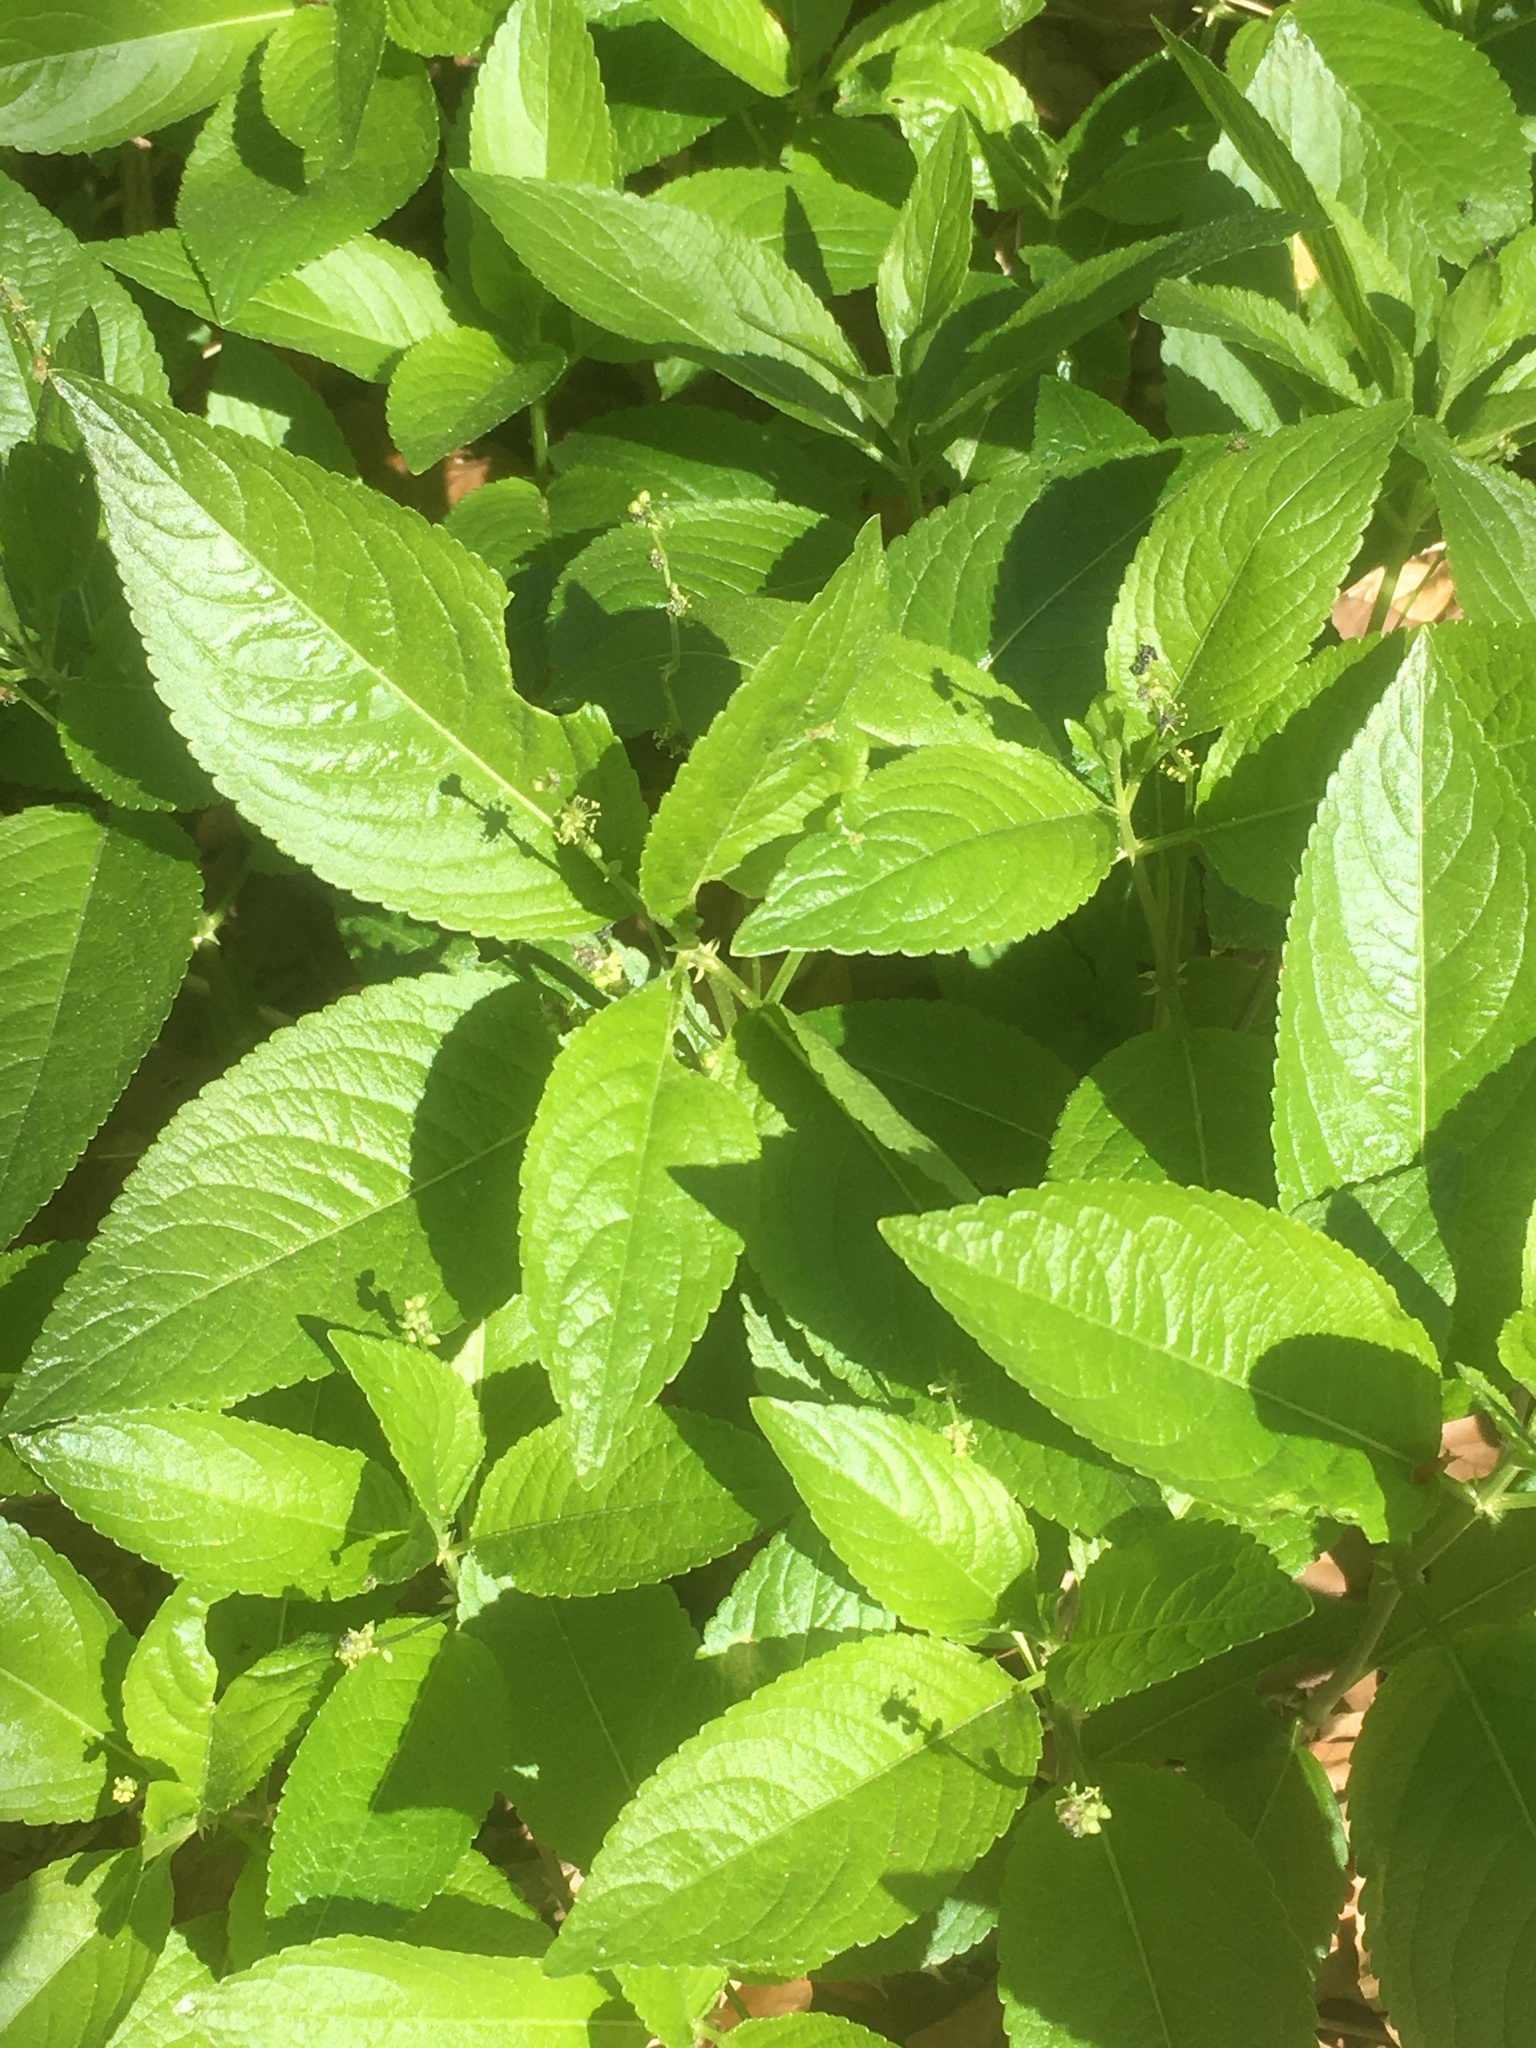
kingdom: Plantae
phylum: Tracheophyta
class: Magnoliopsida
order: Malpighiales
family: Euphorbiaceae
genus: Mercurialis
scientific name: Mercurialis perennis
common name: Dog mercury
